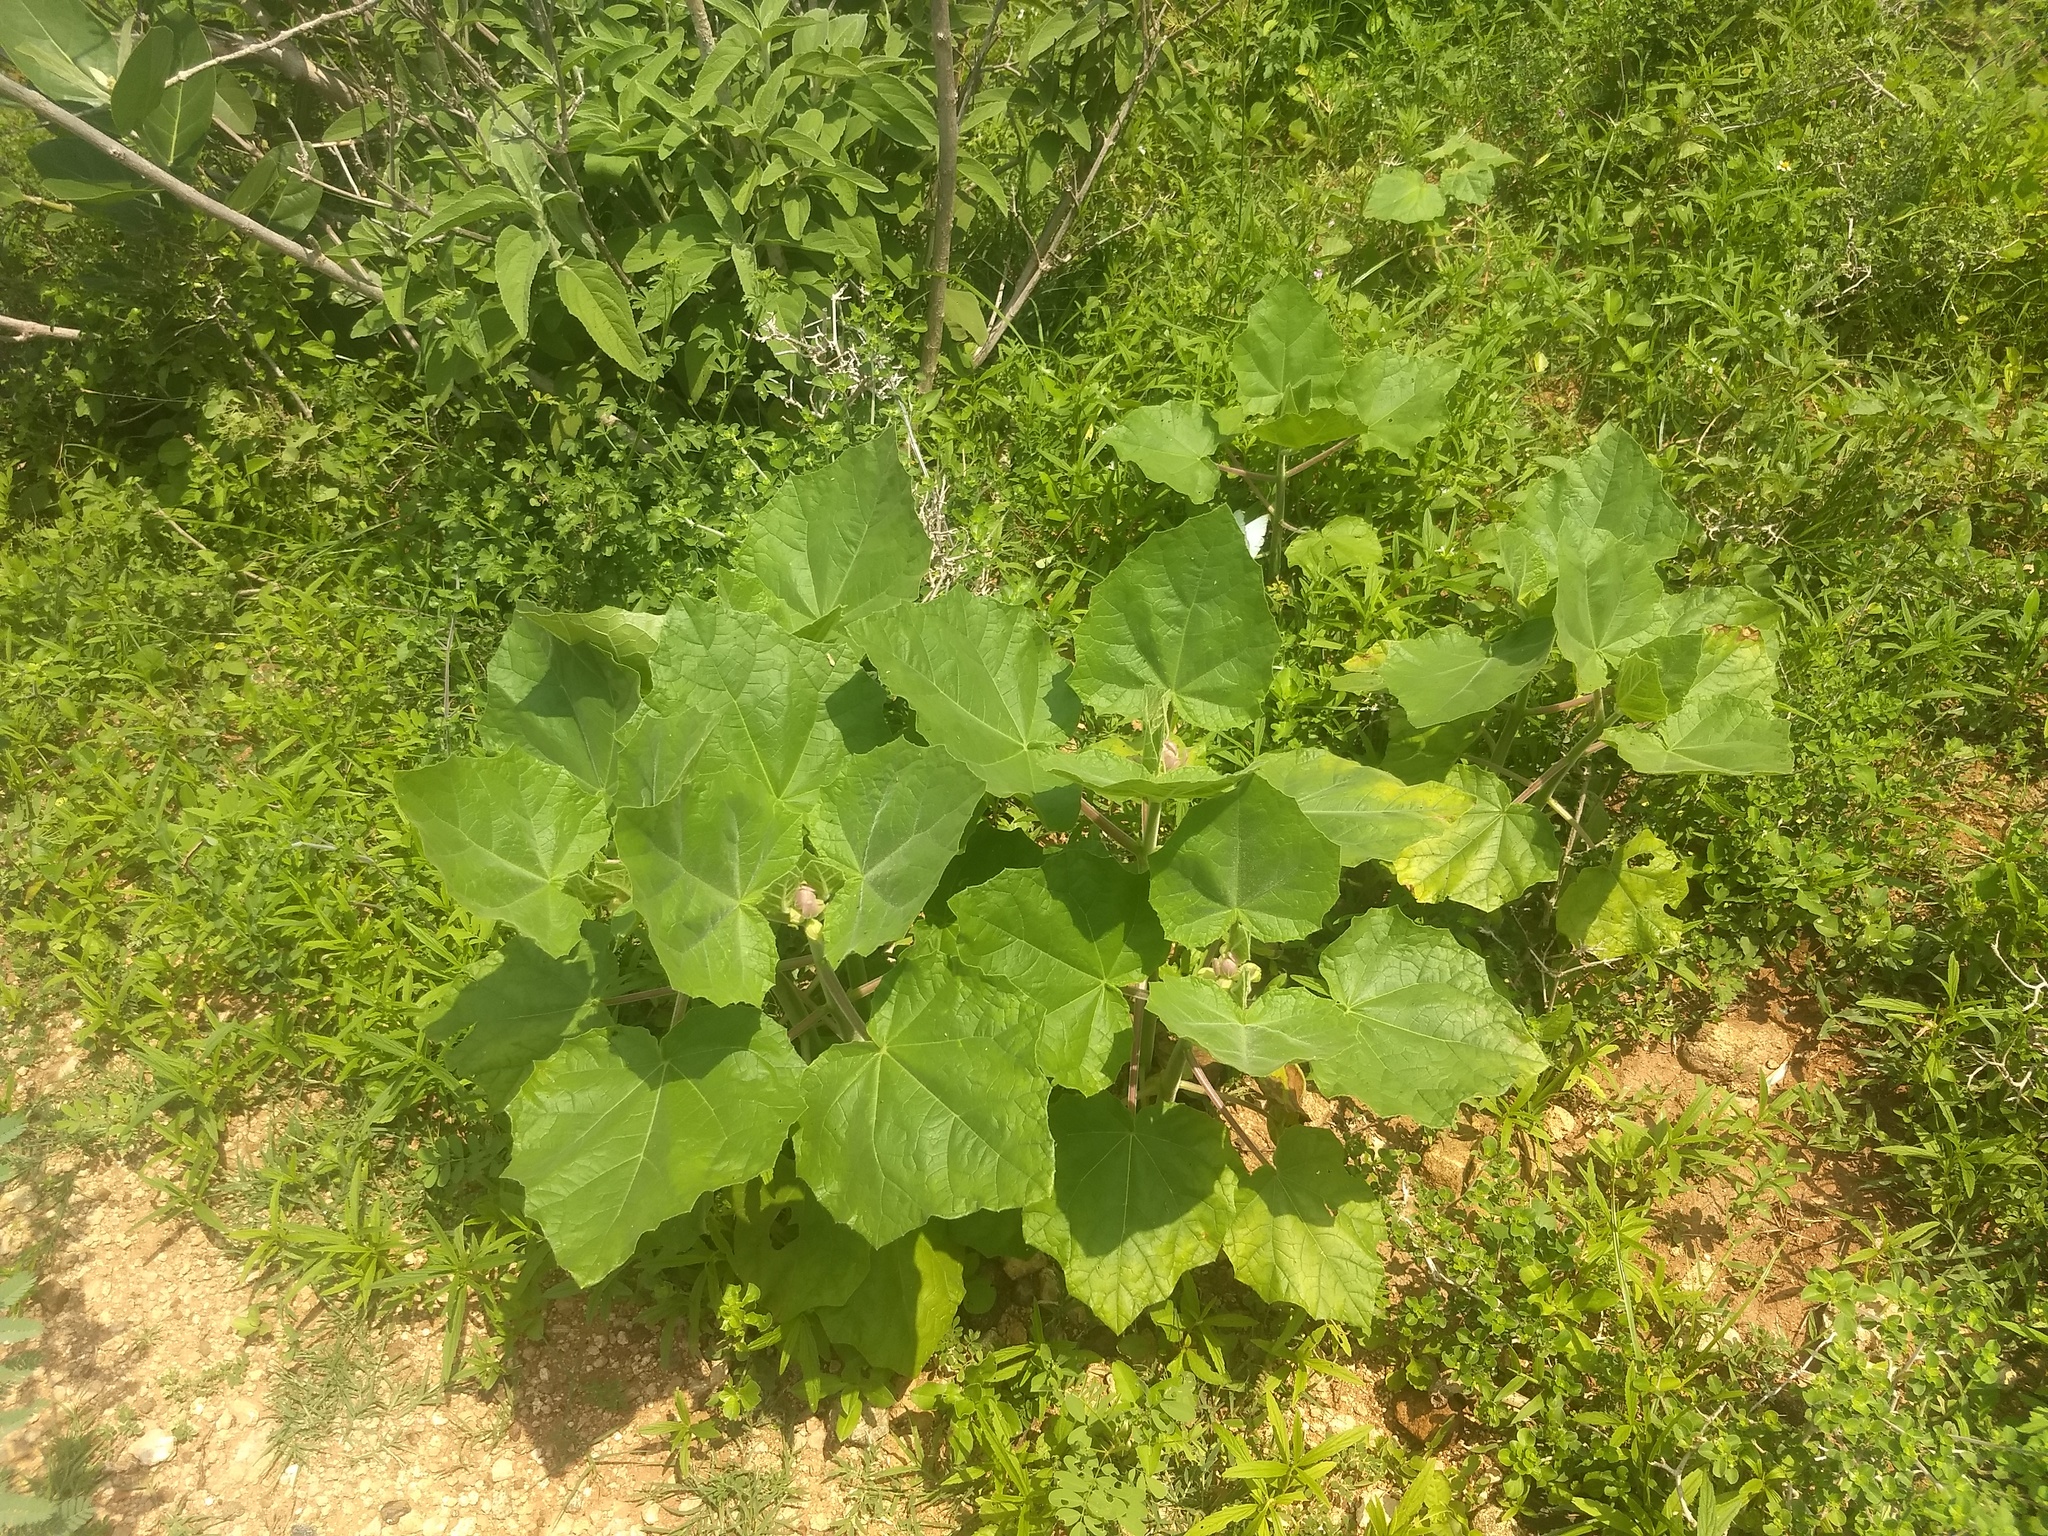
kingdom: Plantae
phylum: Tracheophyta
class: Magnoliopsida
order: Lamiales
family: Martyniaceae
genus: Martynia
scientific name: Martynia annua
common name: Tiger's-claw
